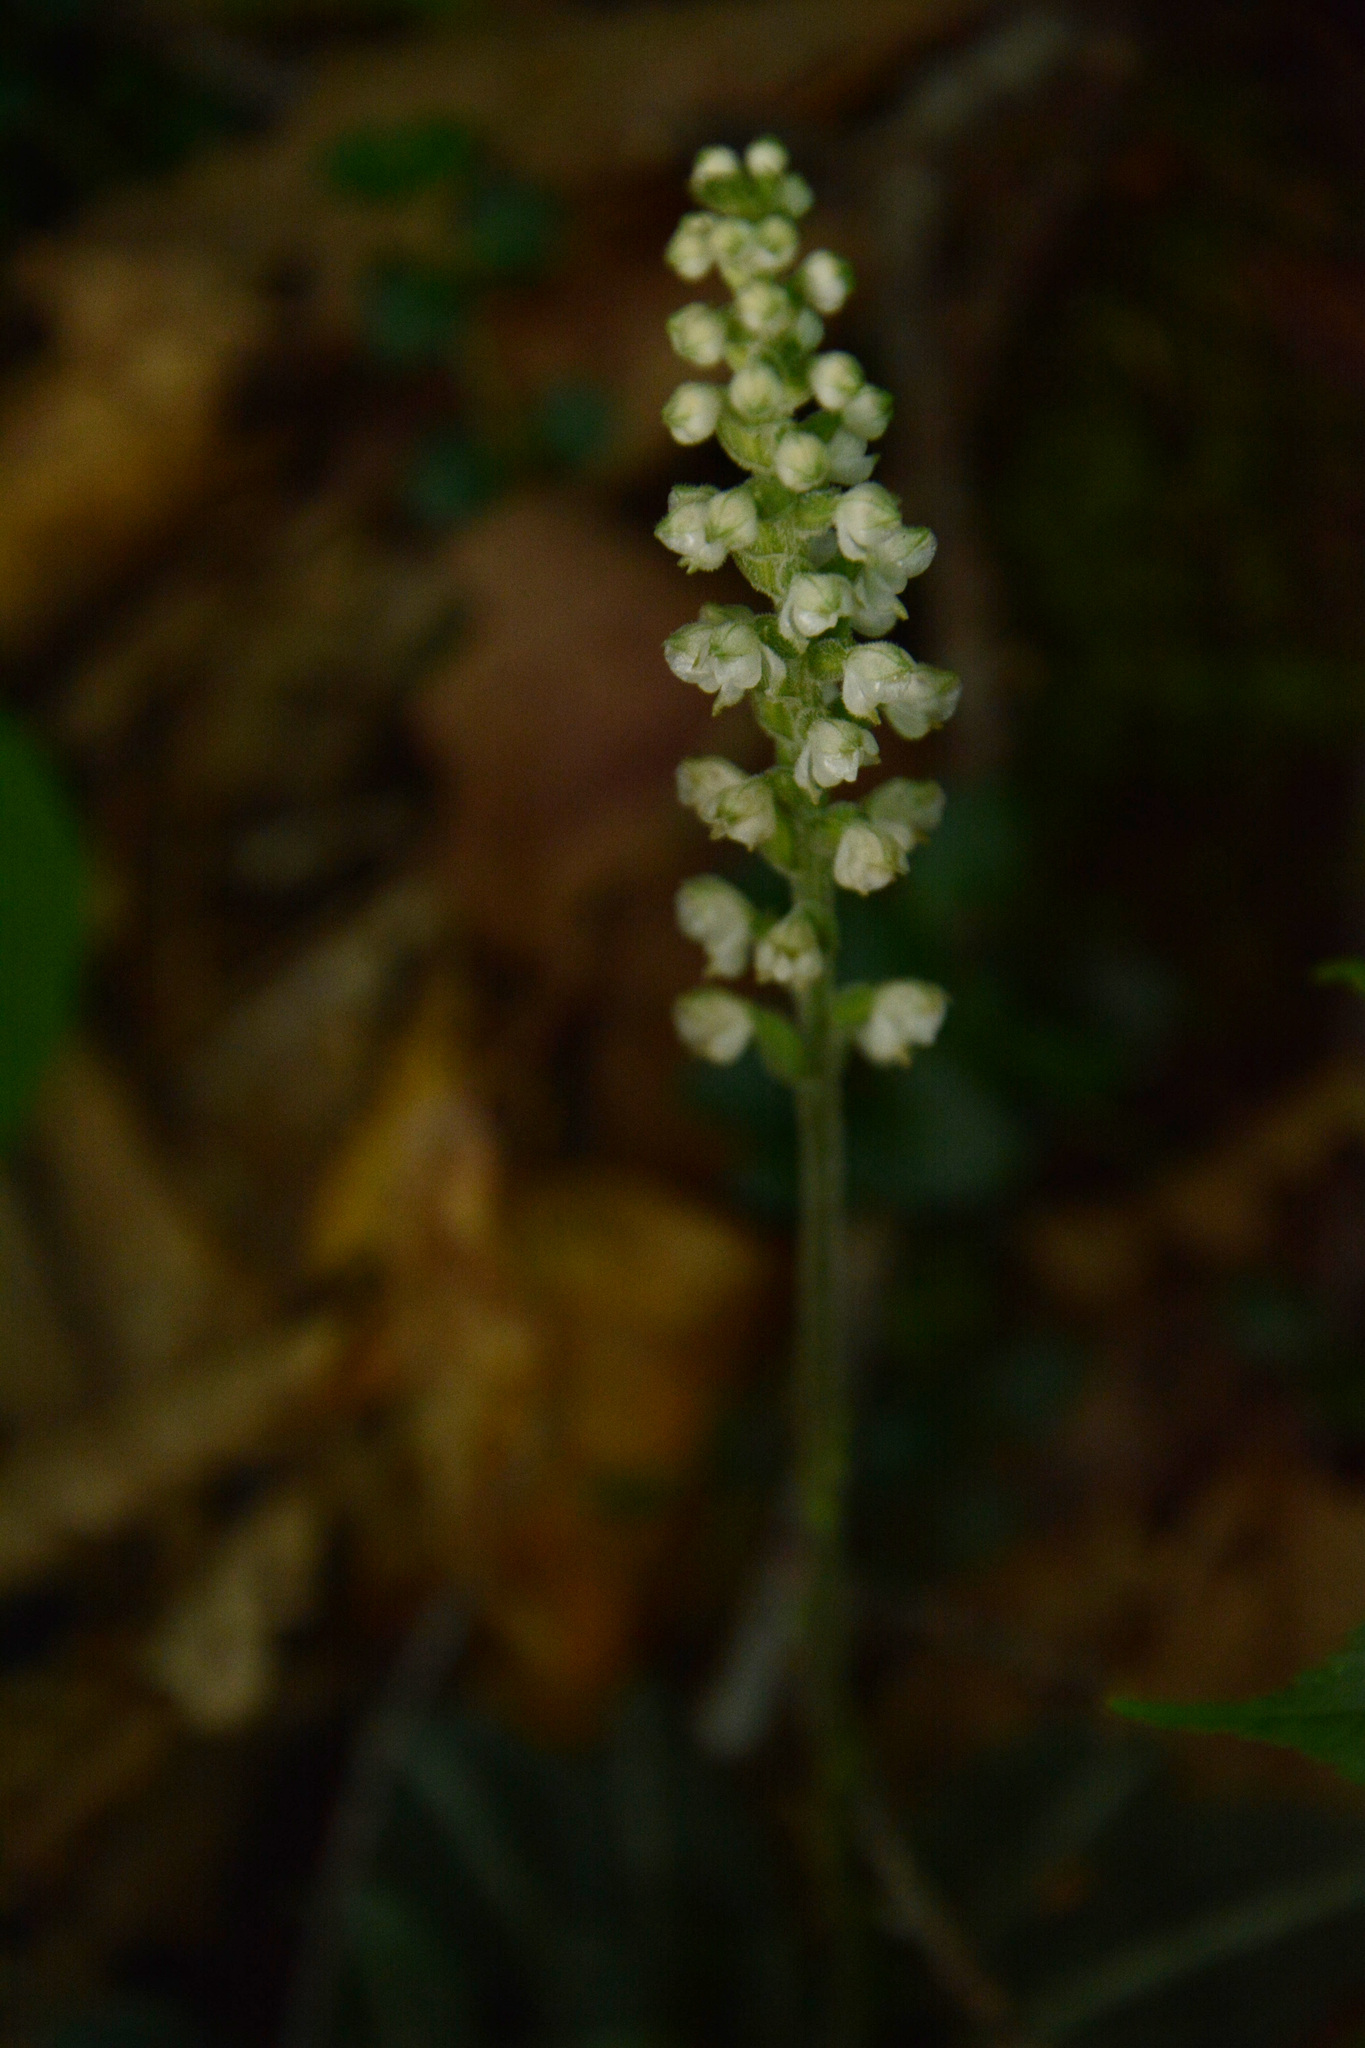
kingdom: Plantae
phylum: Tracheophyta
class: Liliopsida
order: Asparagales
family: Orchidaceae
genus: Goodyera
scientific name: Goodyera pubescens
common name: Downy rattlesnake-plantain
